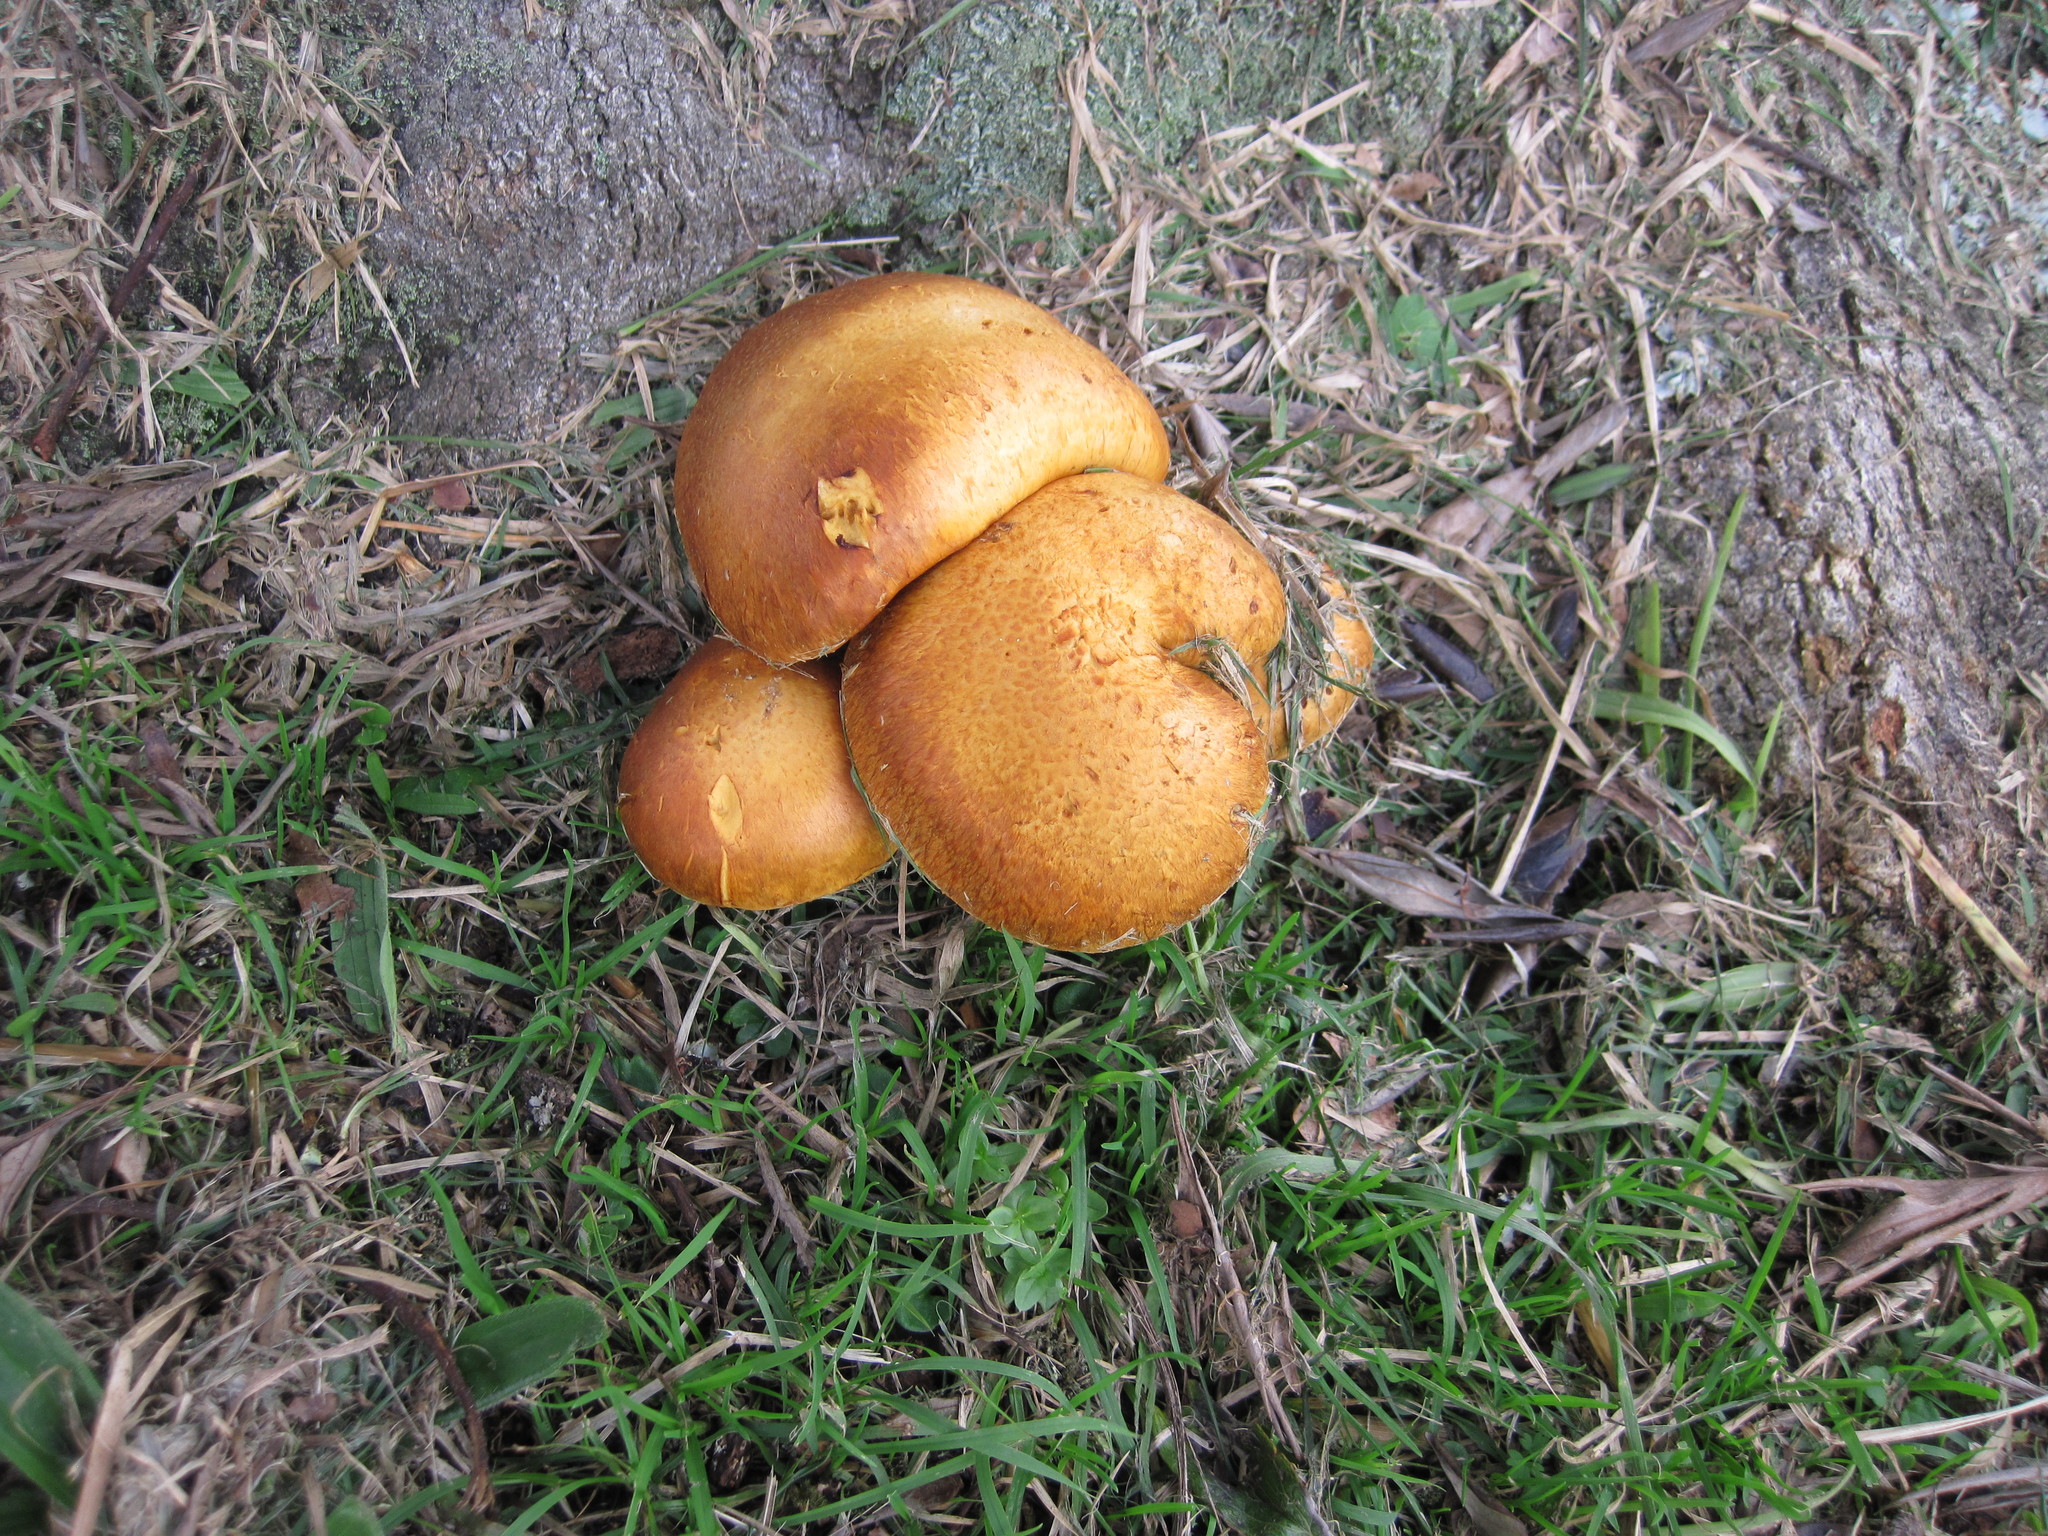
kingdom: Fungi
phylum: Basidiomycota
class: Agaricomycetes
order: Agaricales
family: Hymenogastraceae
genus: Gymnopilus
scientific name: Gymnopilus junonius
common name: Spectacular rustgill
